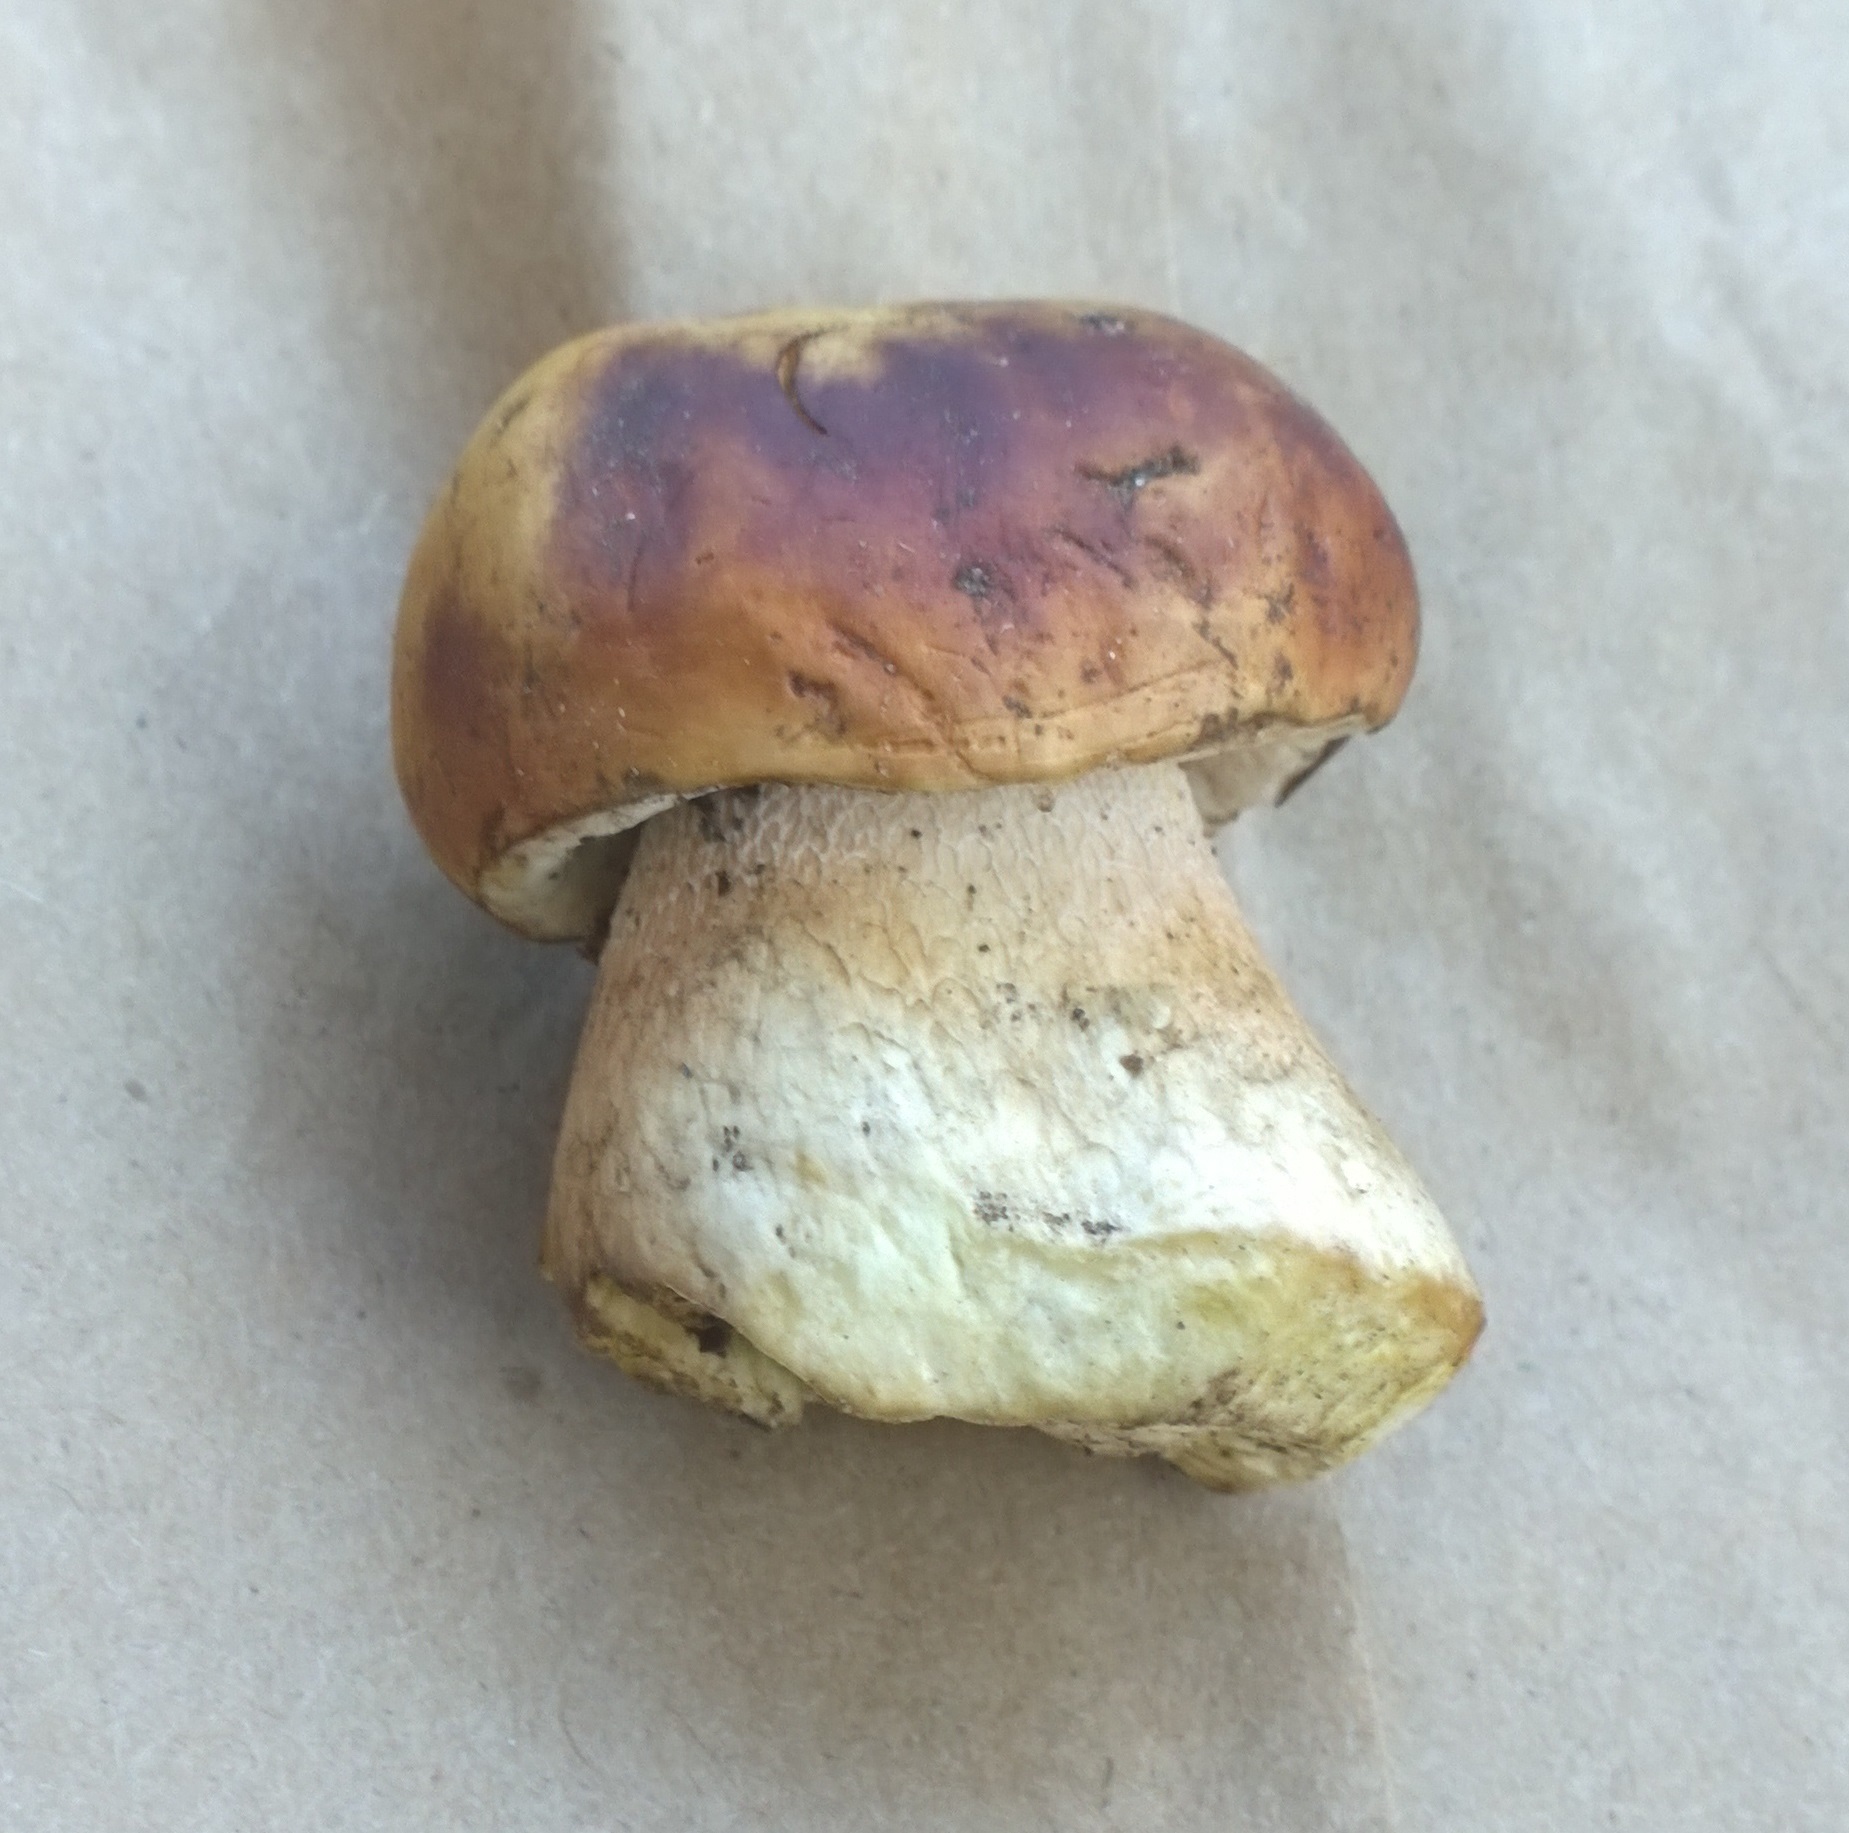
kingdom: Fungi
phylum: Basidiomycota
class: Agaricomycetes
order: Boletales
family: Boletaceae
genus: Boletus
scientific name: Boletus rubriceps
